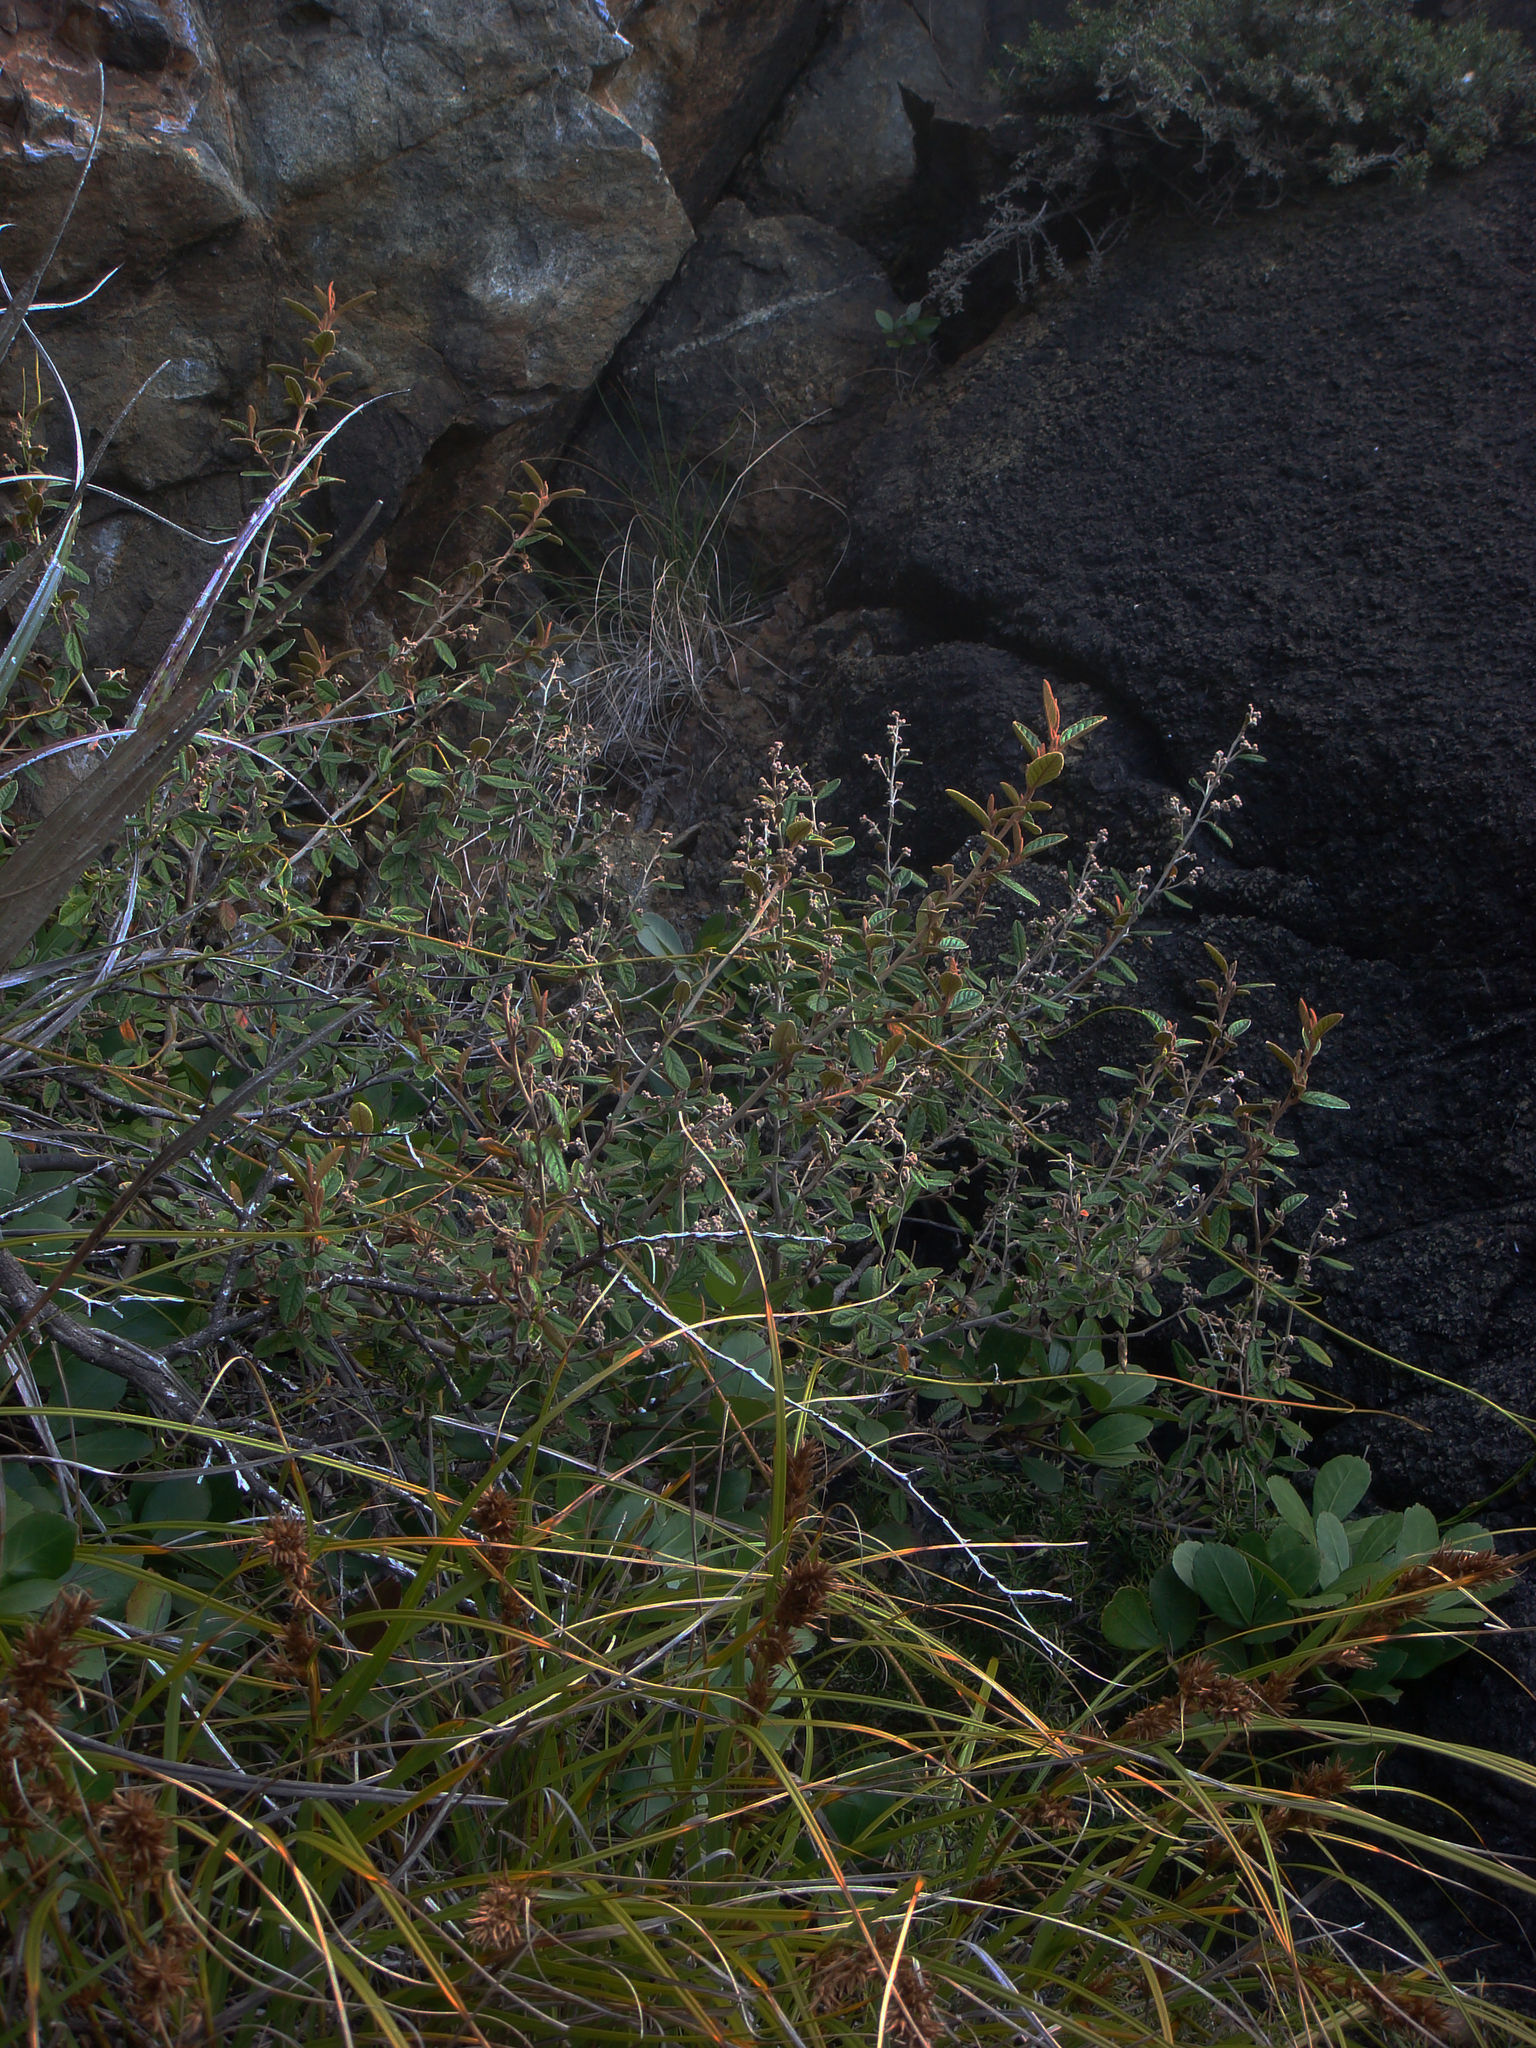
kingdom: Plantae
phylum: Tracheophyta
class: Magnoliopsida
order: Rosales
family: Rhamnaceae
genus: Pomaderris
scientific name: Pomaderris paniculosa
